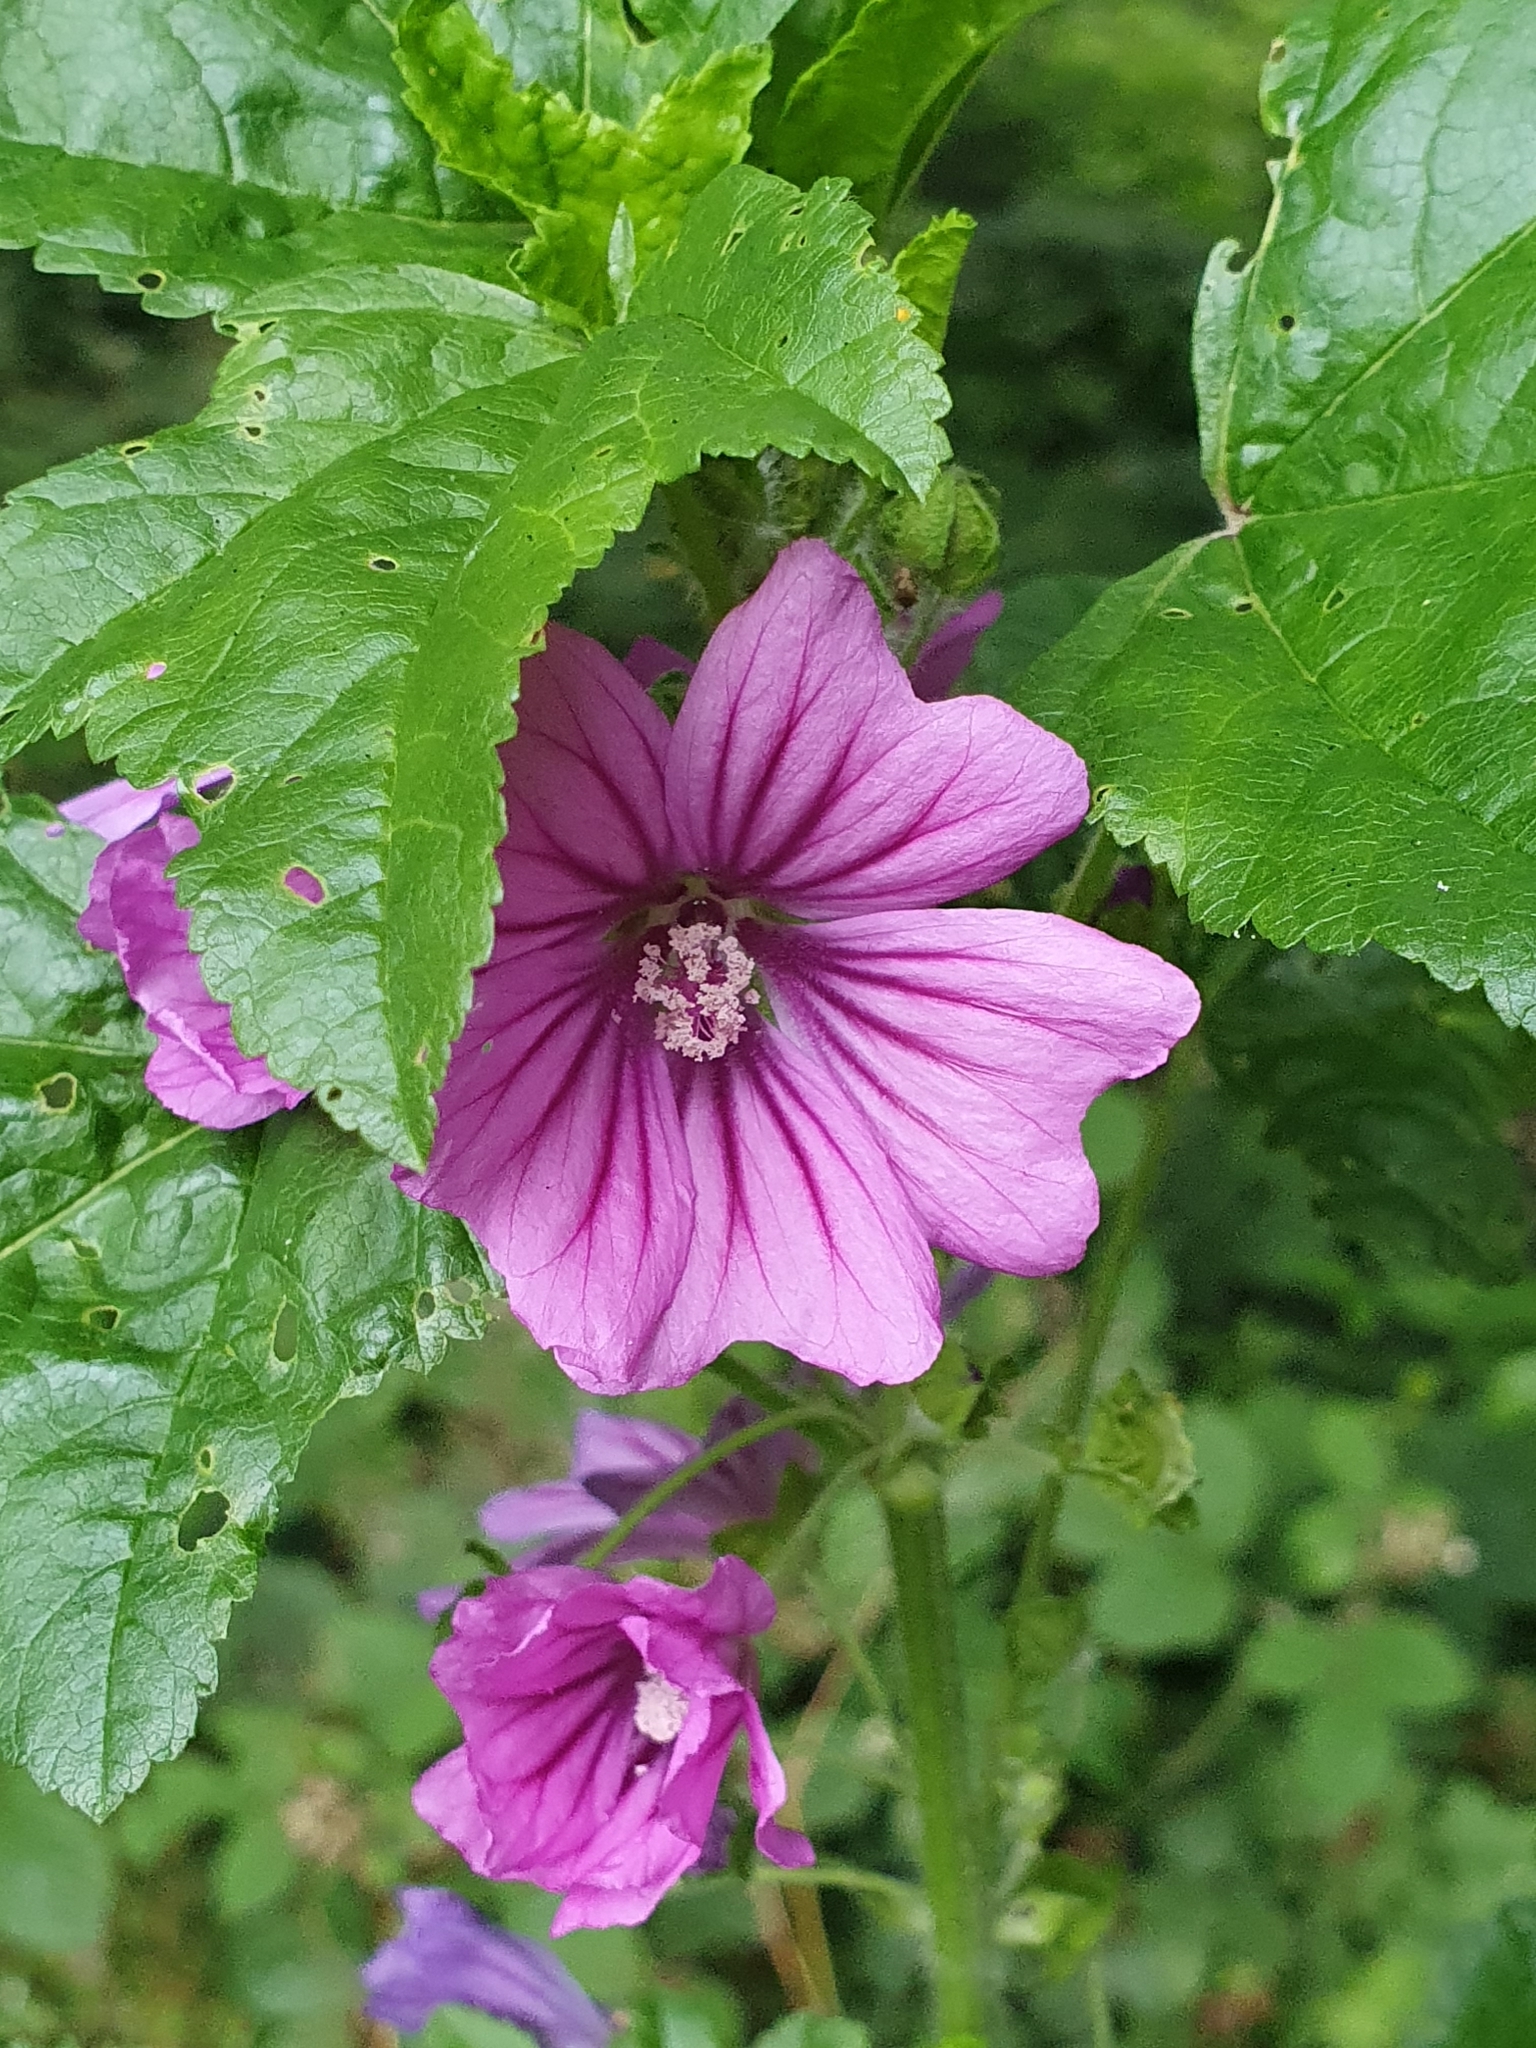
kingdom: Plantae
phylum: Tracheophyta
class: Magnoliopsida
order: Malvales
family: Malvaceae
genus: Malva
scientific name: Malva sylvestris
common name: Common mallow
